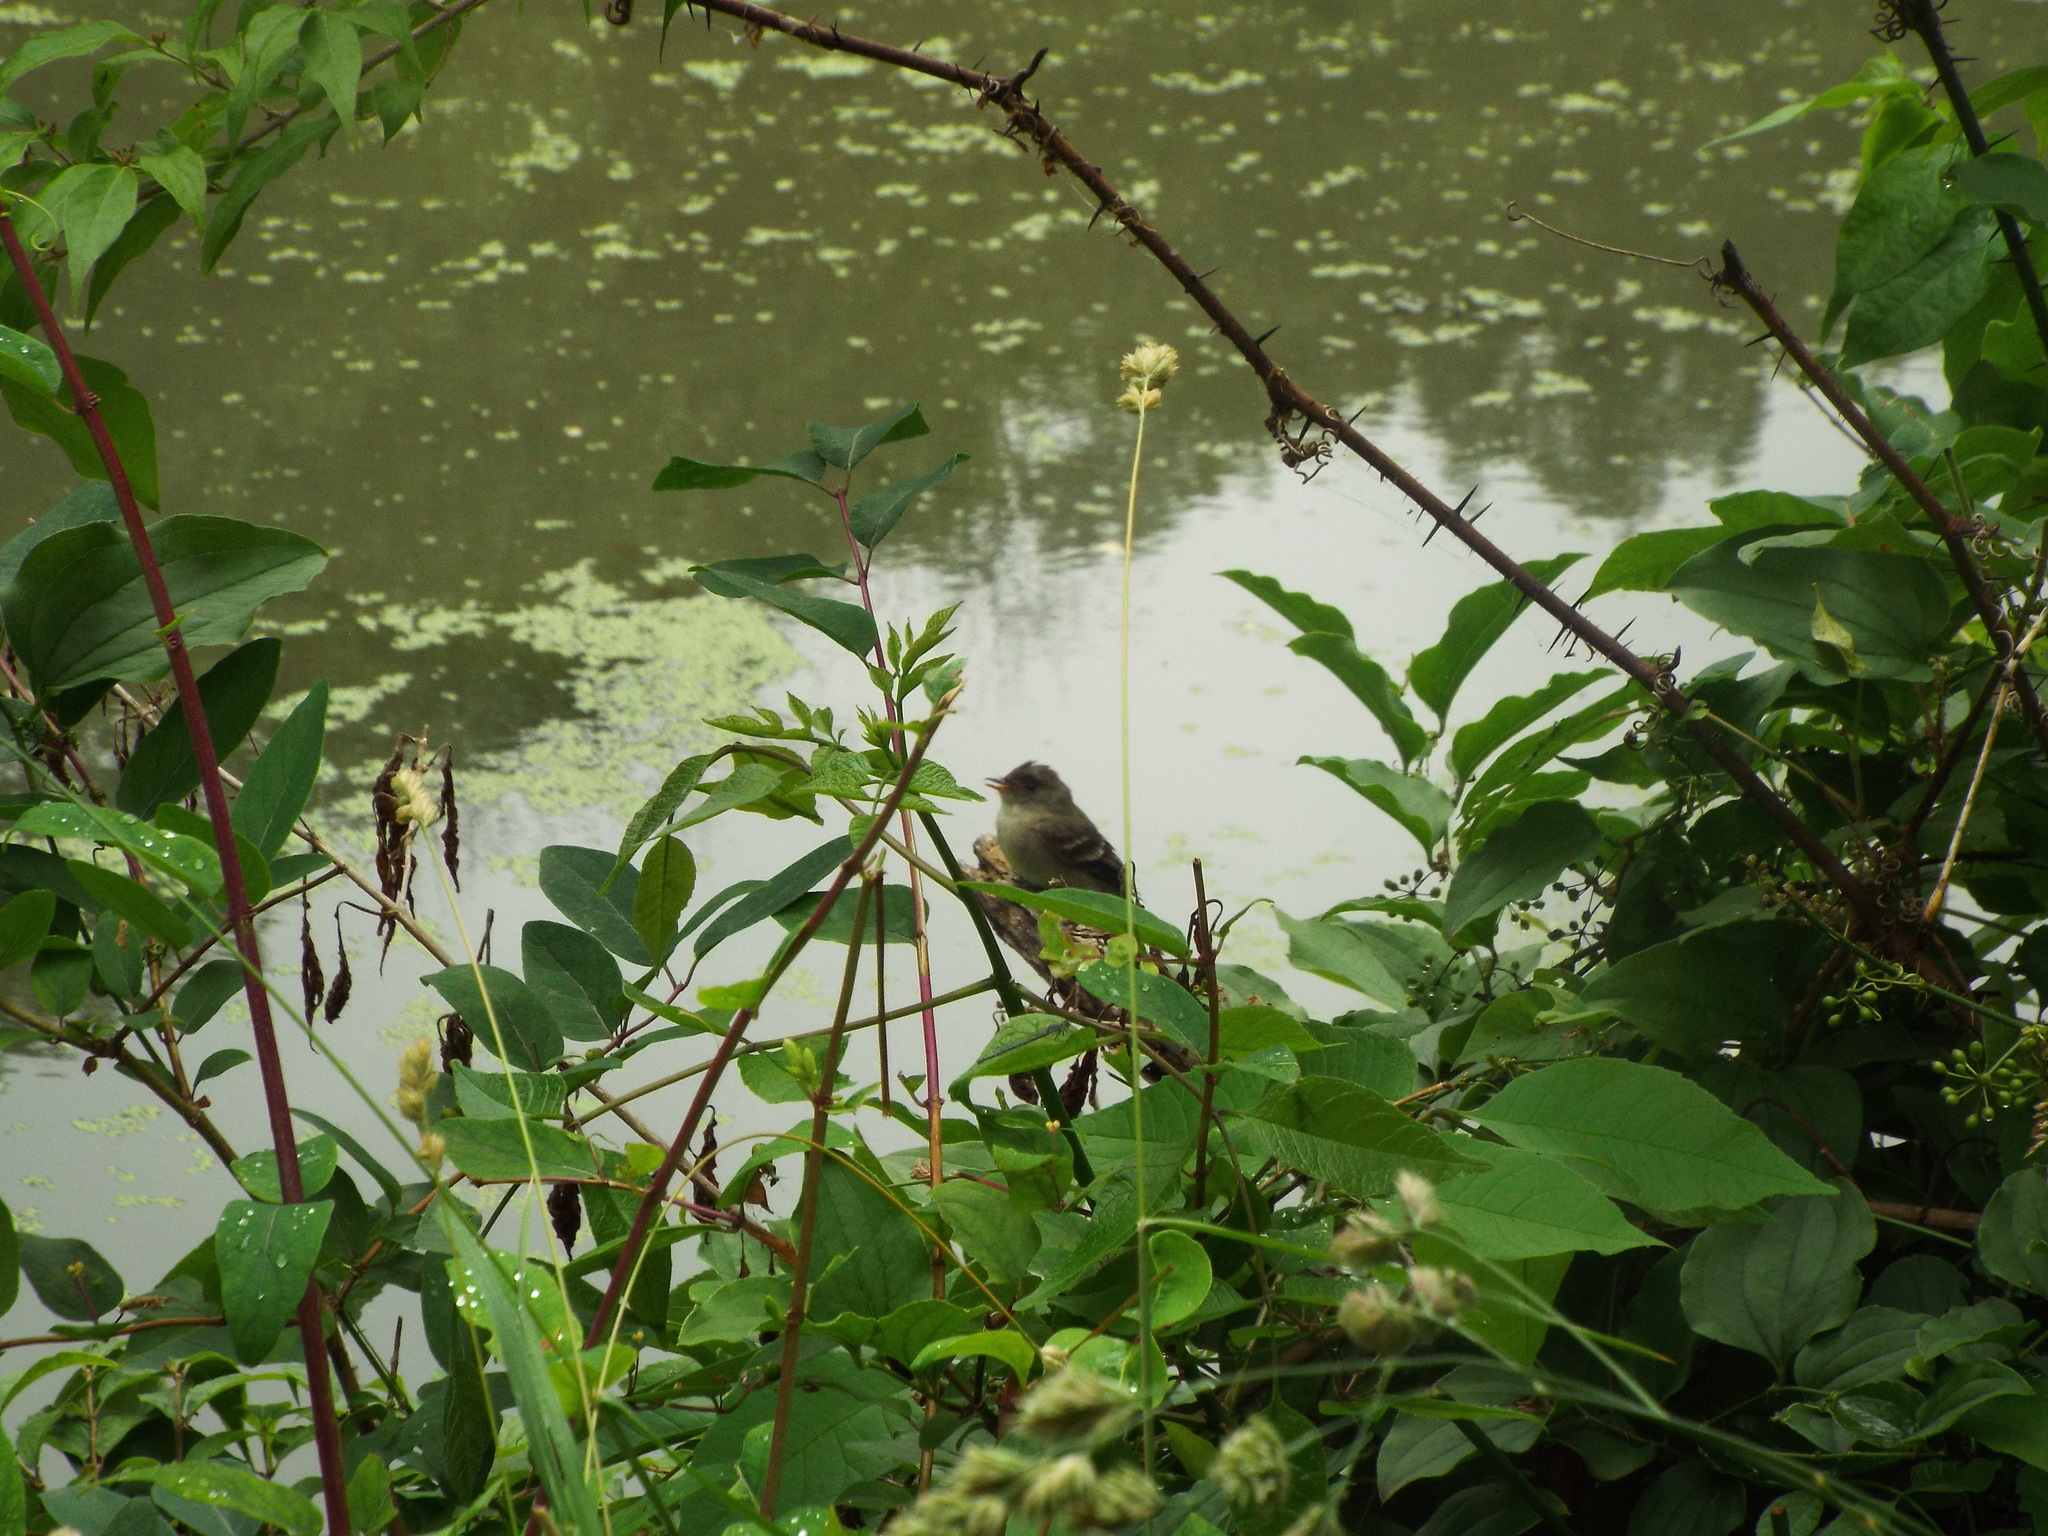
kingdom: Animalia
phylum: Chordata
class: Aves
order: Passeriformes
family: Tyrannidae
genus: Empidonax
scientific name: Empidonax
